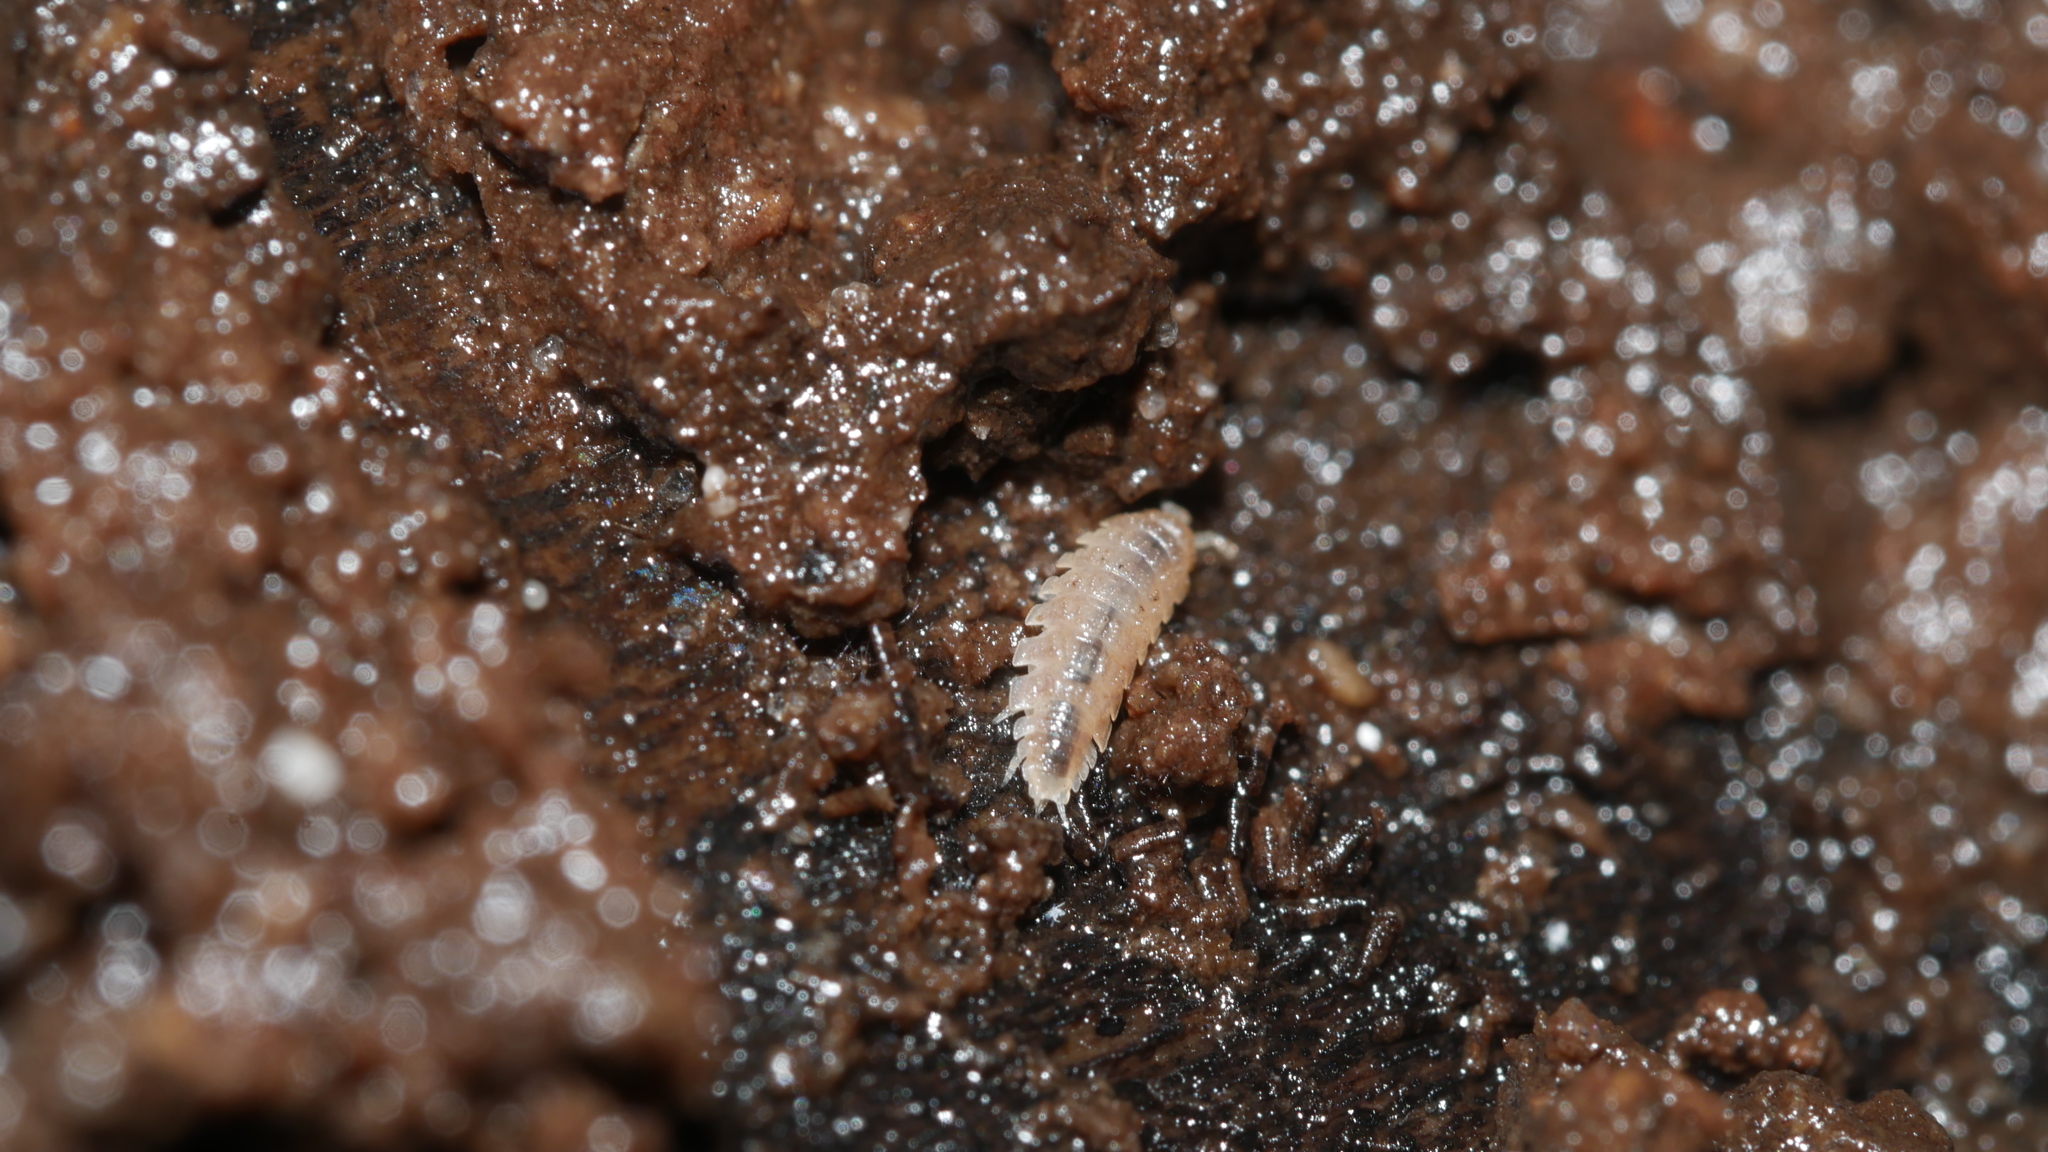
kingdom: Animalia
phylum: Arthropoda
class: Malacostraca
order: Isopoda
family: Trichoniscidae
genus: Haplophthalmus
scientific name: Haplophthalmus danicus
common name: Pillbug
